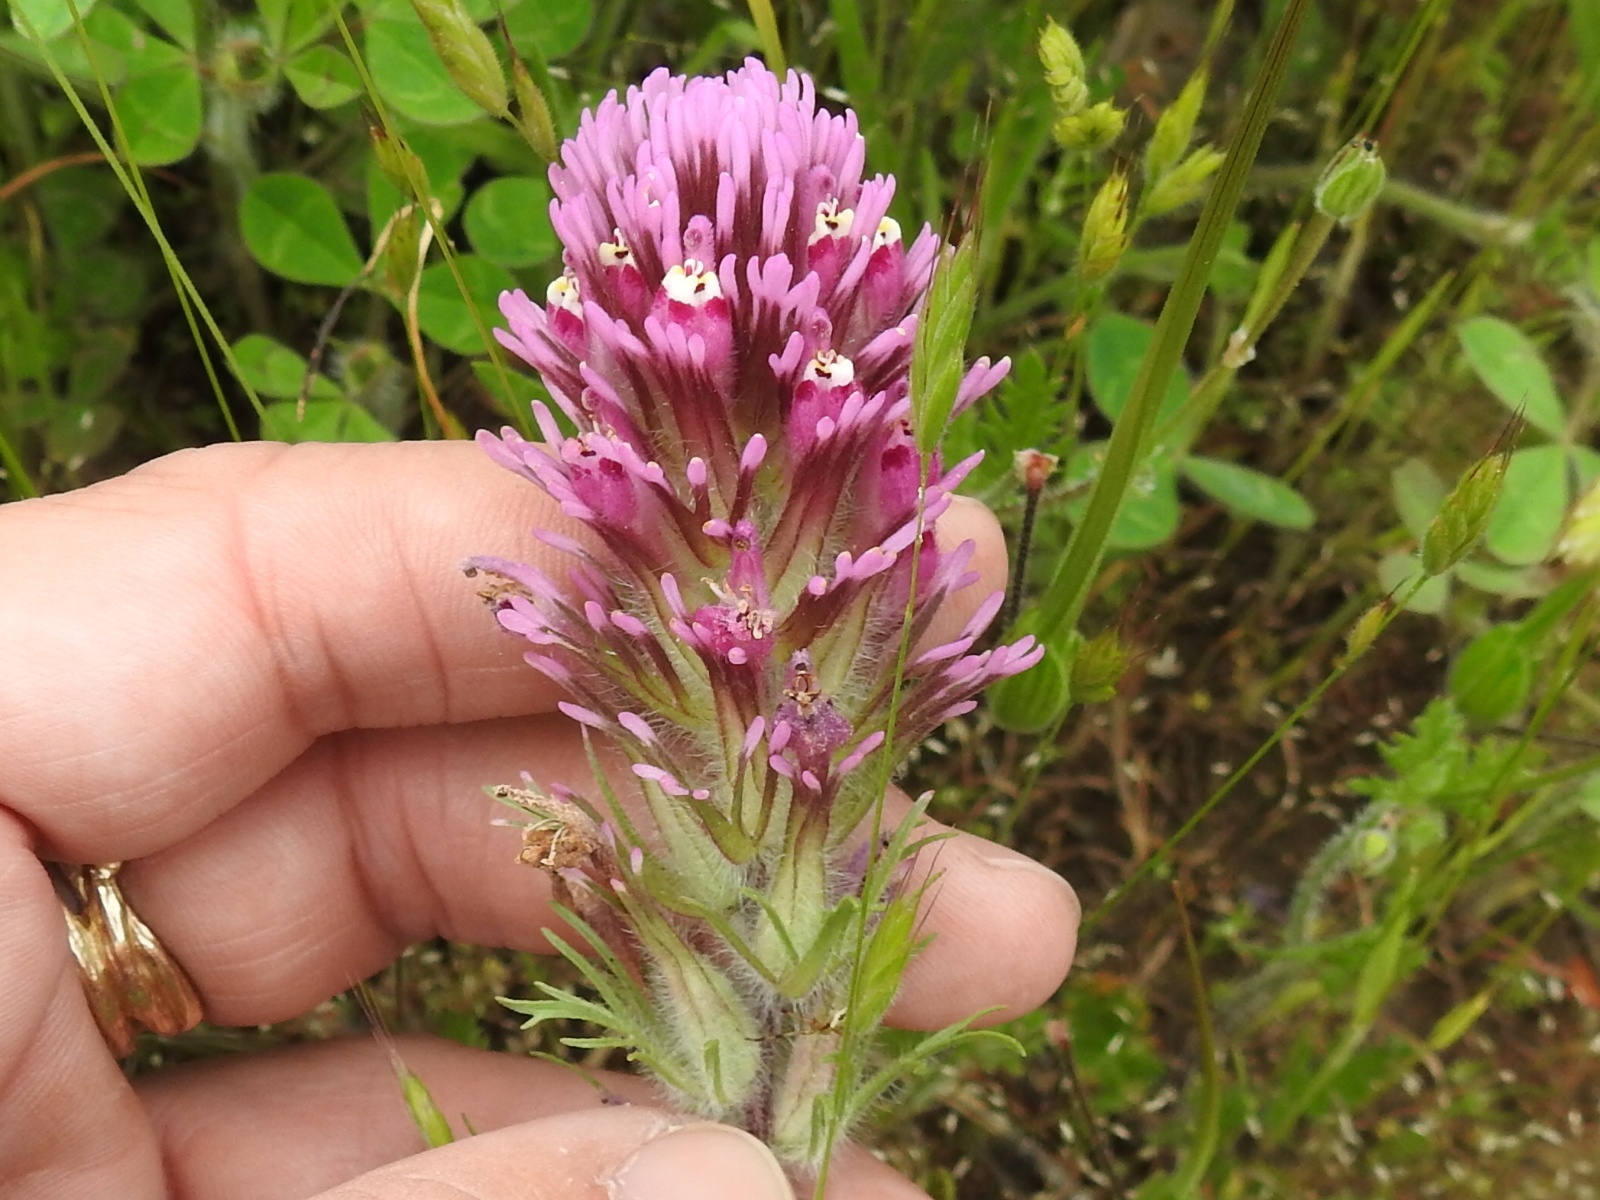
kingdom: Plantae
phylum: Tracheophyta
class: Magnoliopsida
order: Lamiales
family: Orobanchaceae
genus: Castilleja
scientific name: Castilleja exserta
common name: Purple owl-clover
